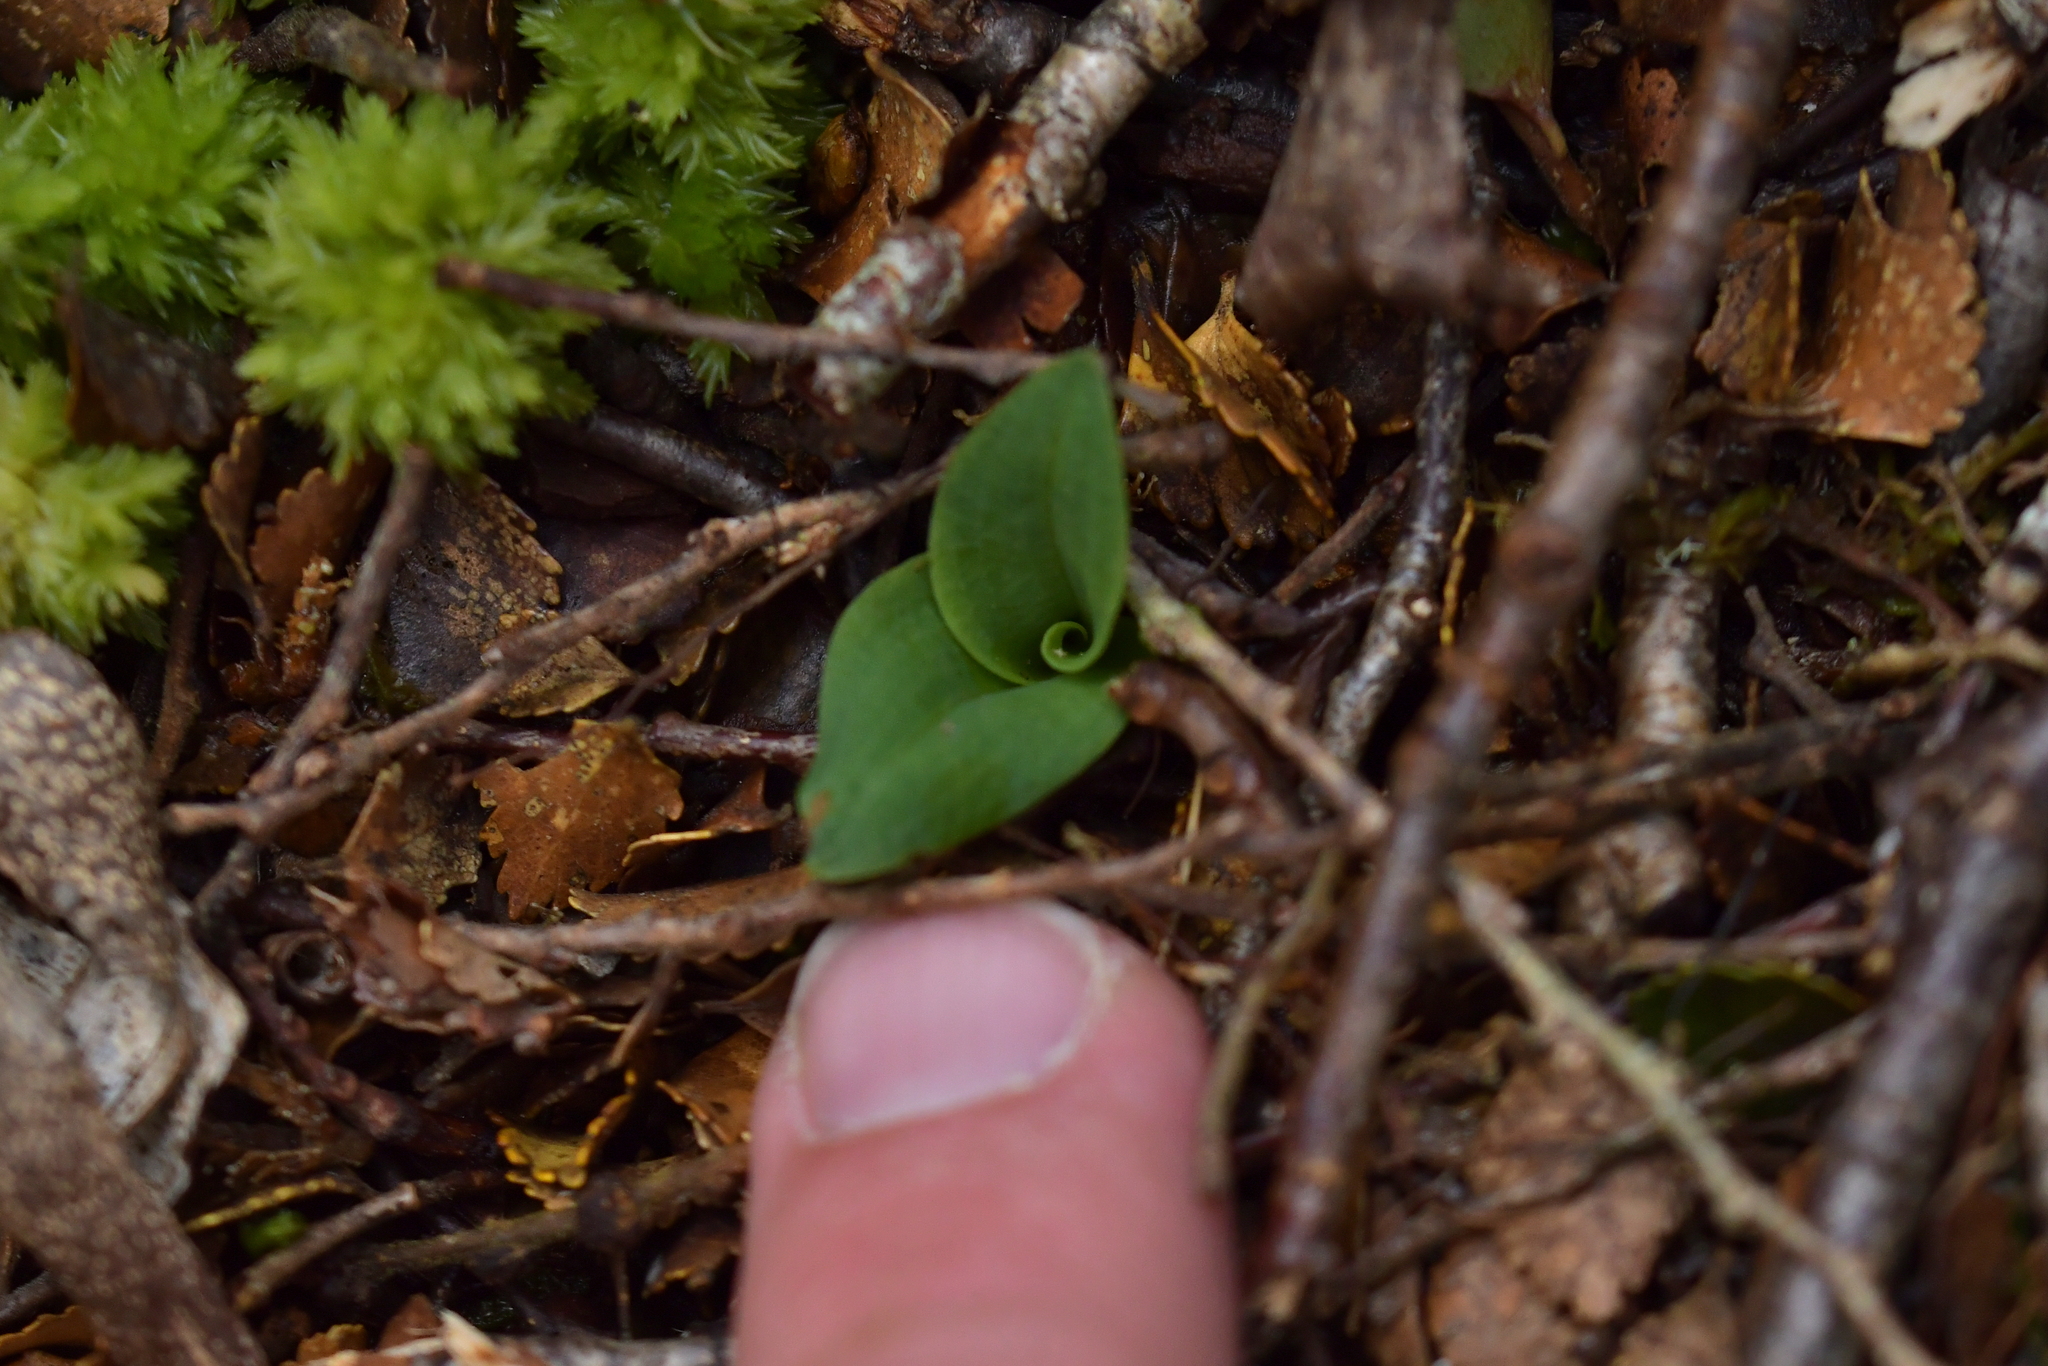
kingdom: Plantae
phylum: Tracheophyta
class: Liliopsida
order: Asparagales
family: Orchidaceae
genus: Chiloglottis
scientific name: Chiloglottis cornuta
